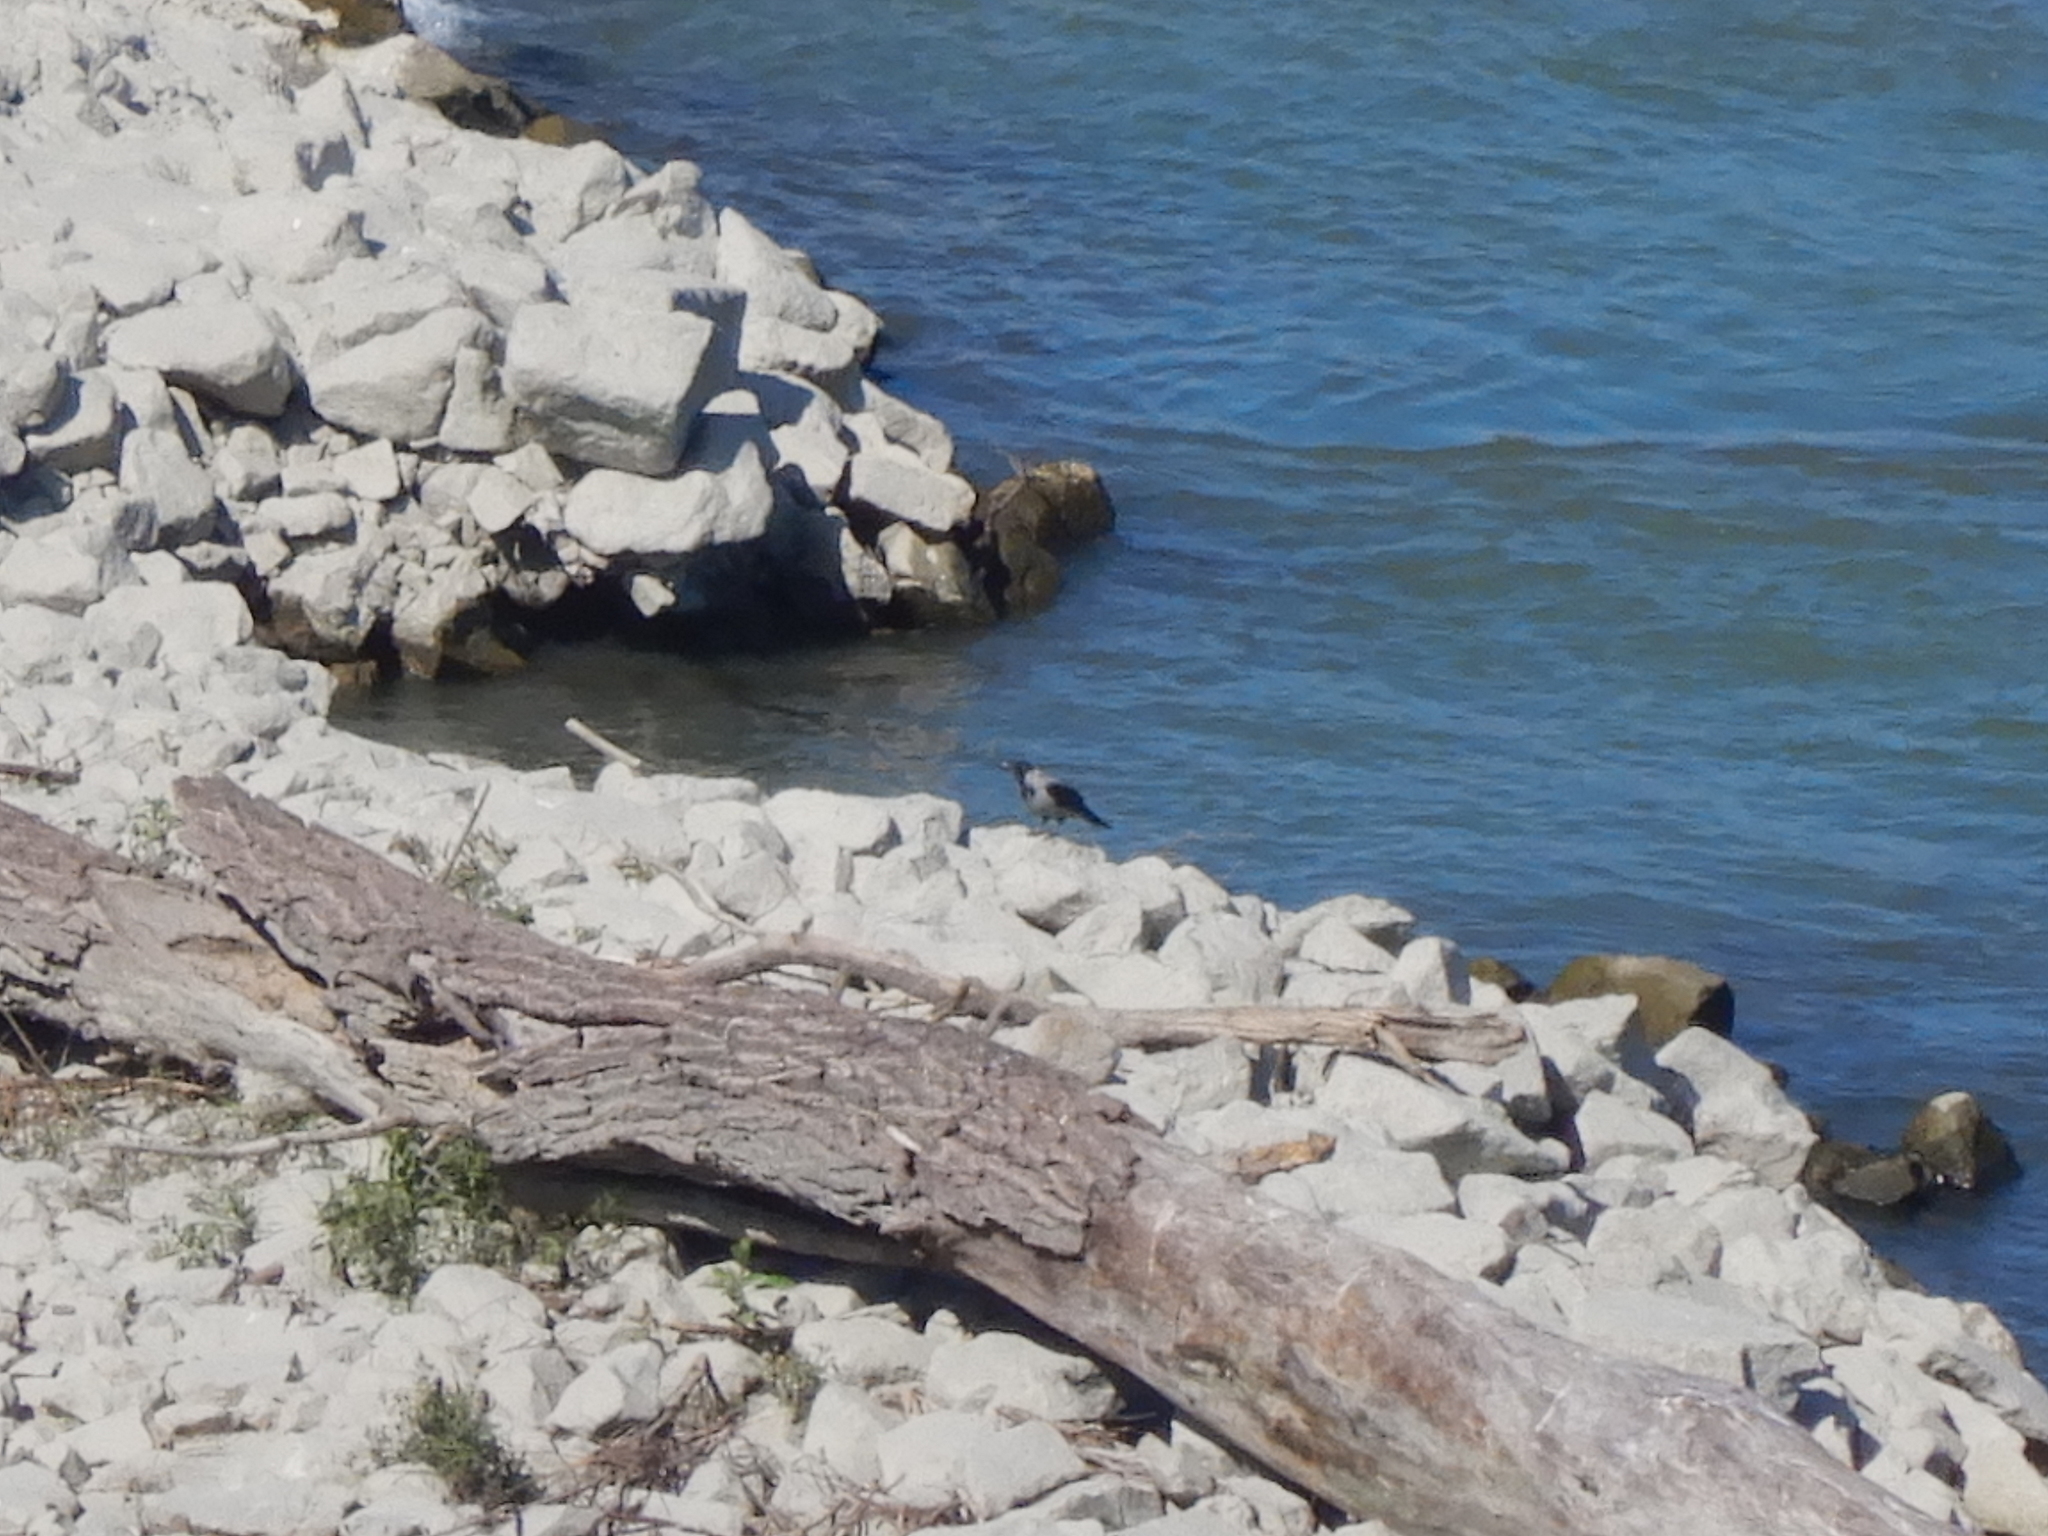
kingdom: Animalia
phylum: Chordata
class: Aves
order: Passeriformes
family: Corvidae
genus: Corvus
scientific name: Corvus cornix
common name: Hooded crow
